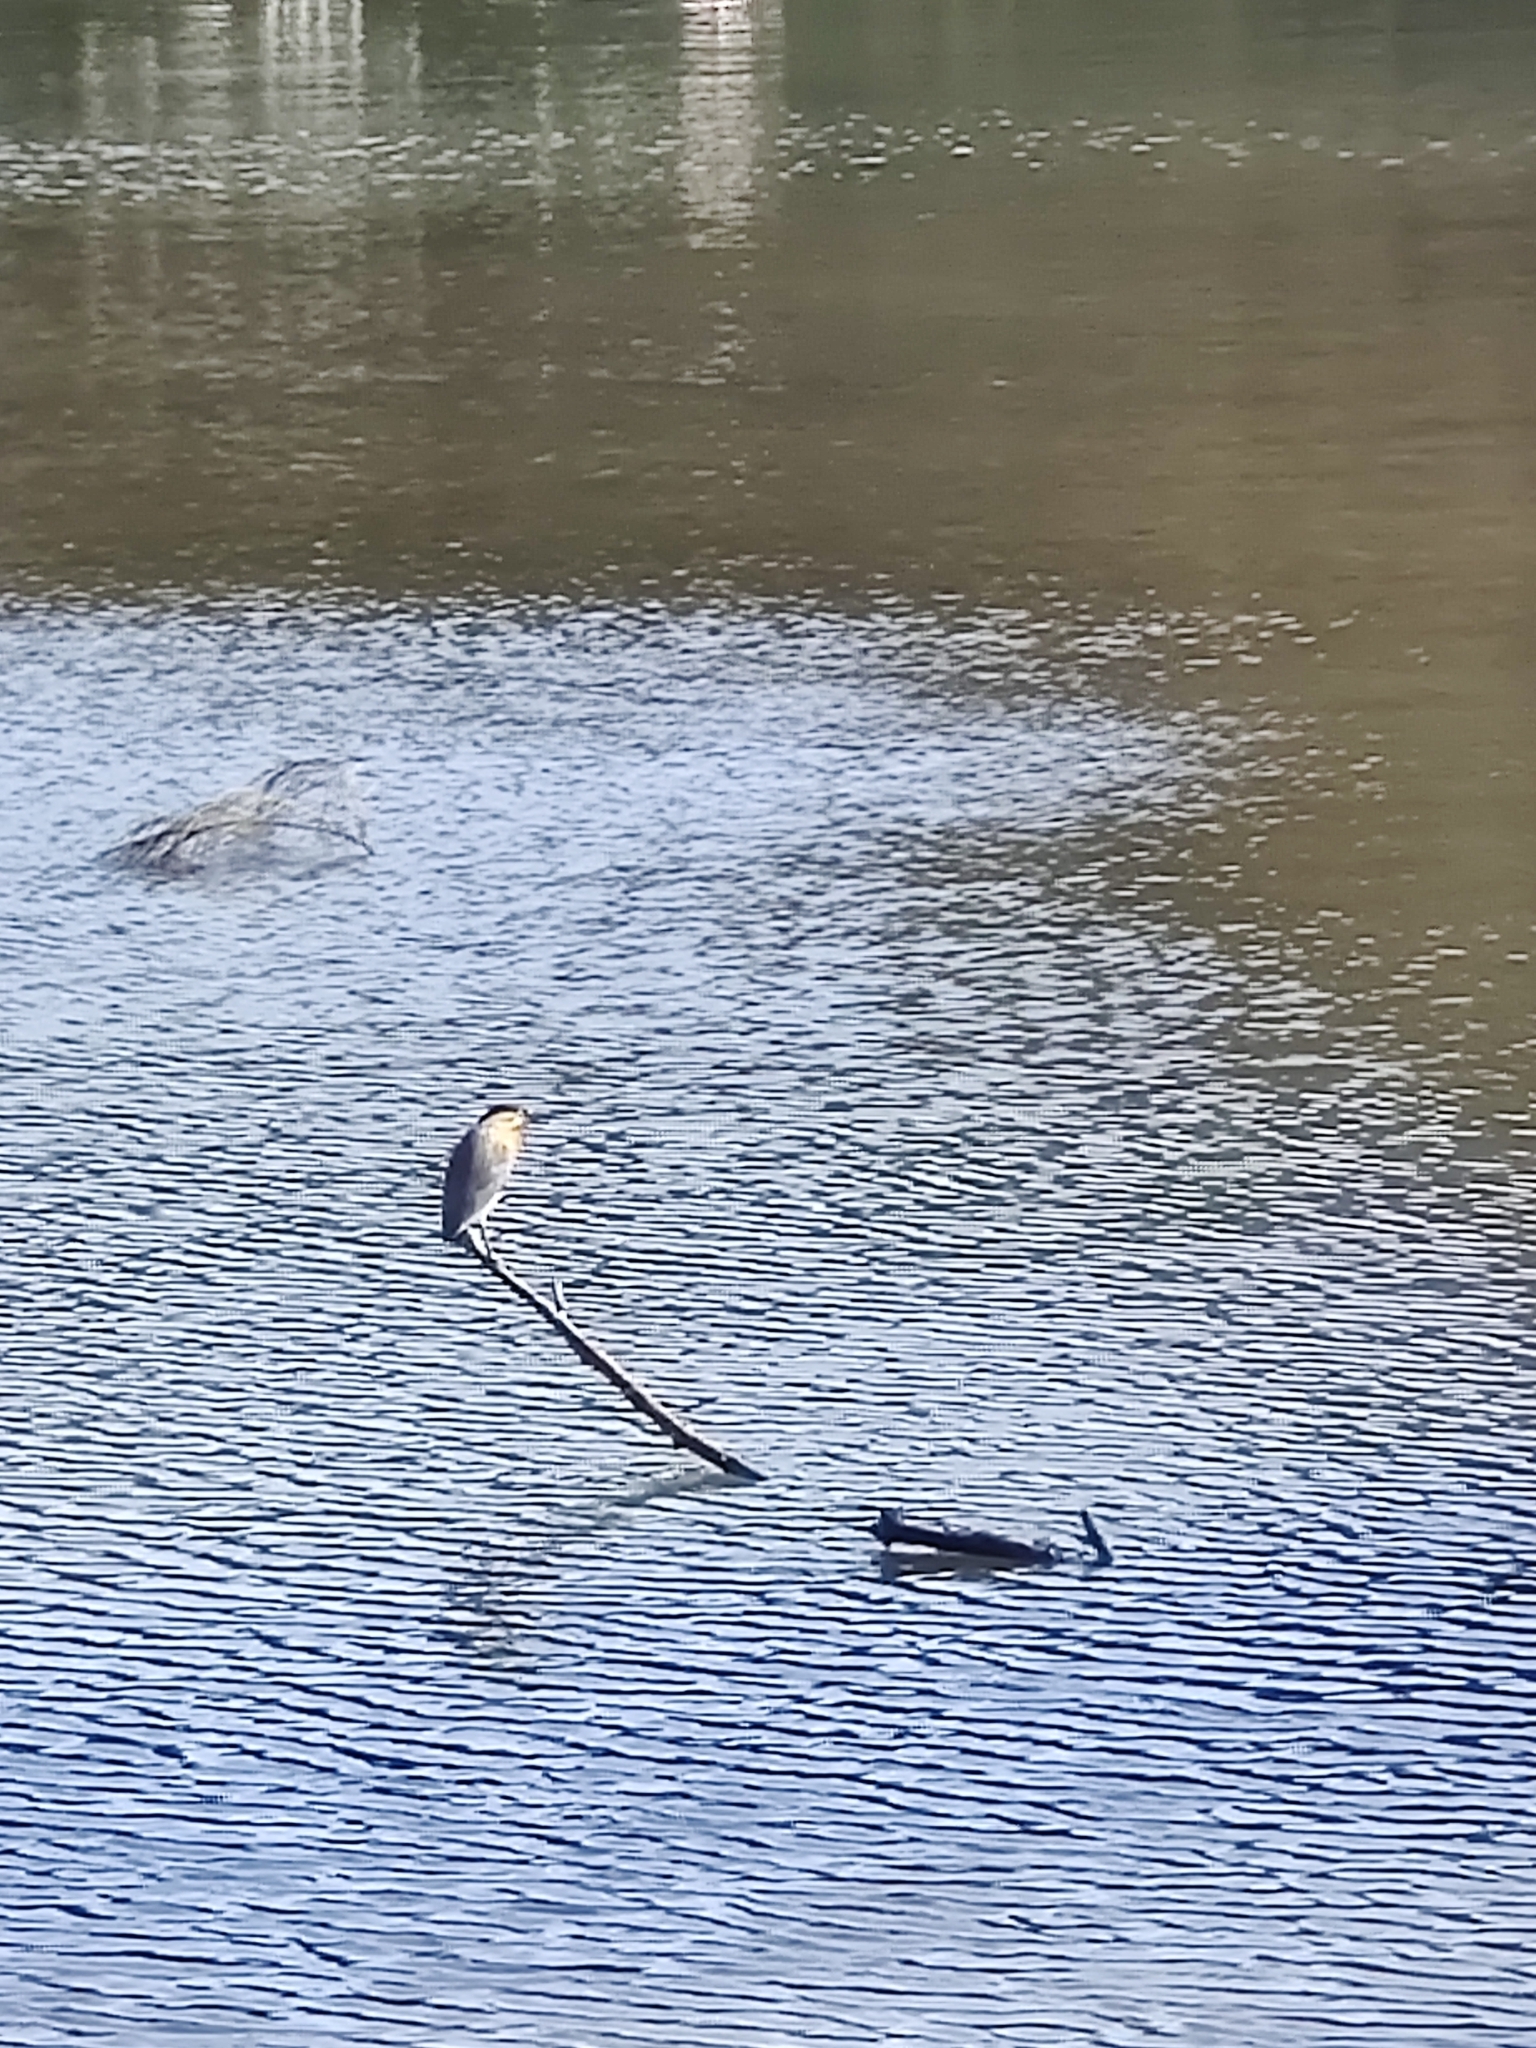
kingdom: Animalia
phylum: Chordata
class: Aves
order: Pelecaniformes
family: Ardeidae
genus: Butorides
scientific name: Butorides striata
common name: Striated heron
